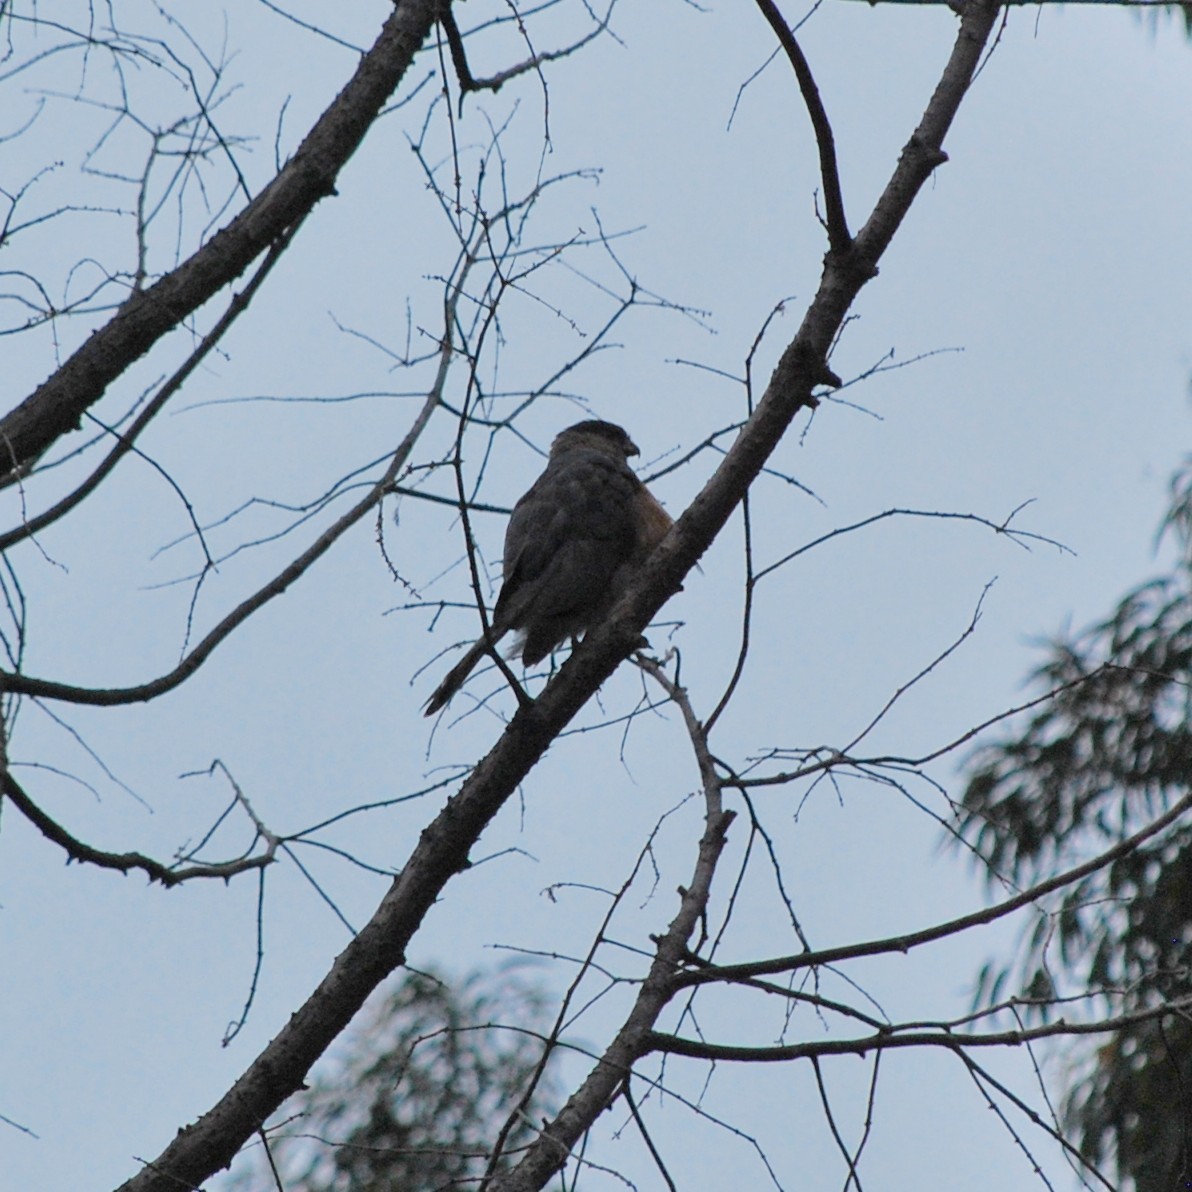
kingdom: Animalia
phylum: Chordata
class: Aves
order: Accipitriformes
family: Accipitridae
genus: Accipiter
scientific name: Accipiter cooperii
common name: Cooper's hawk
